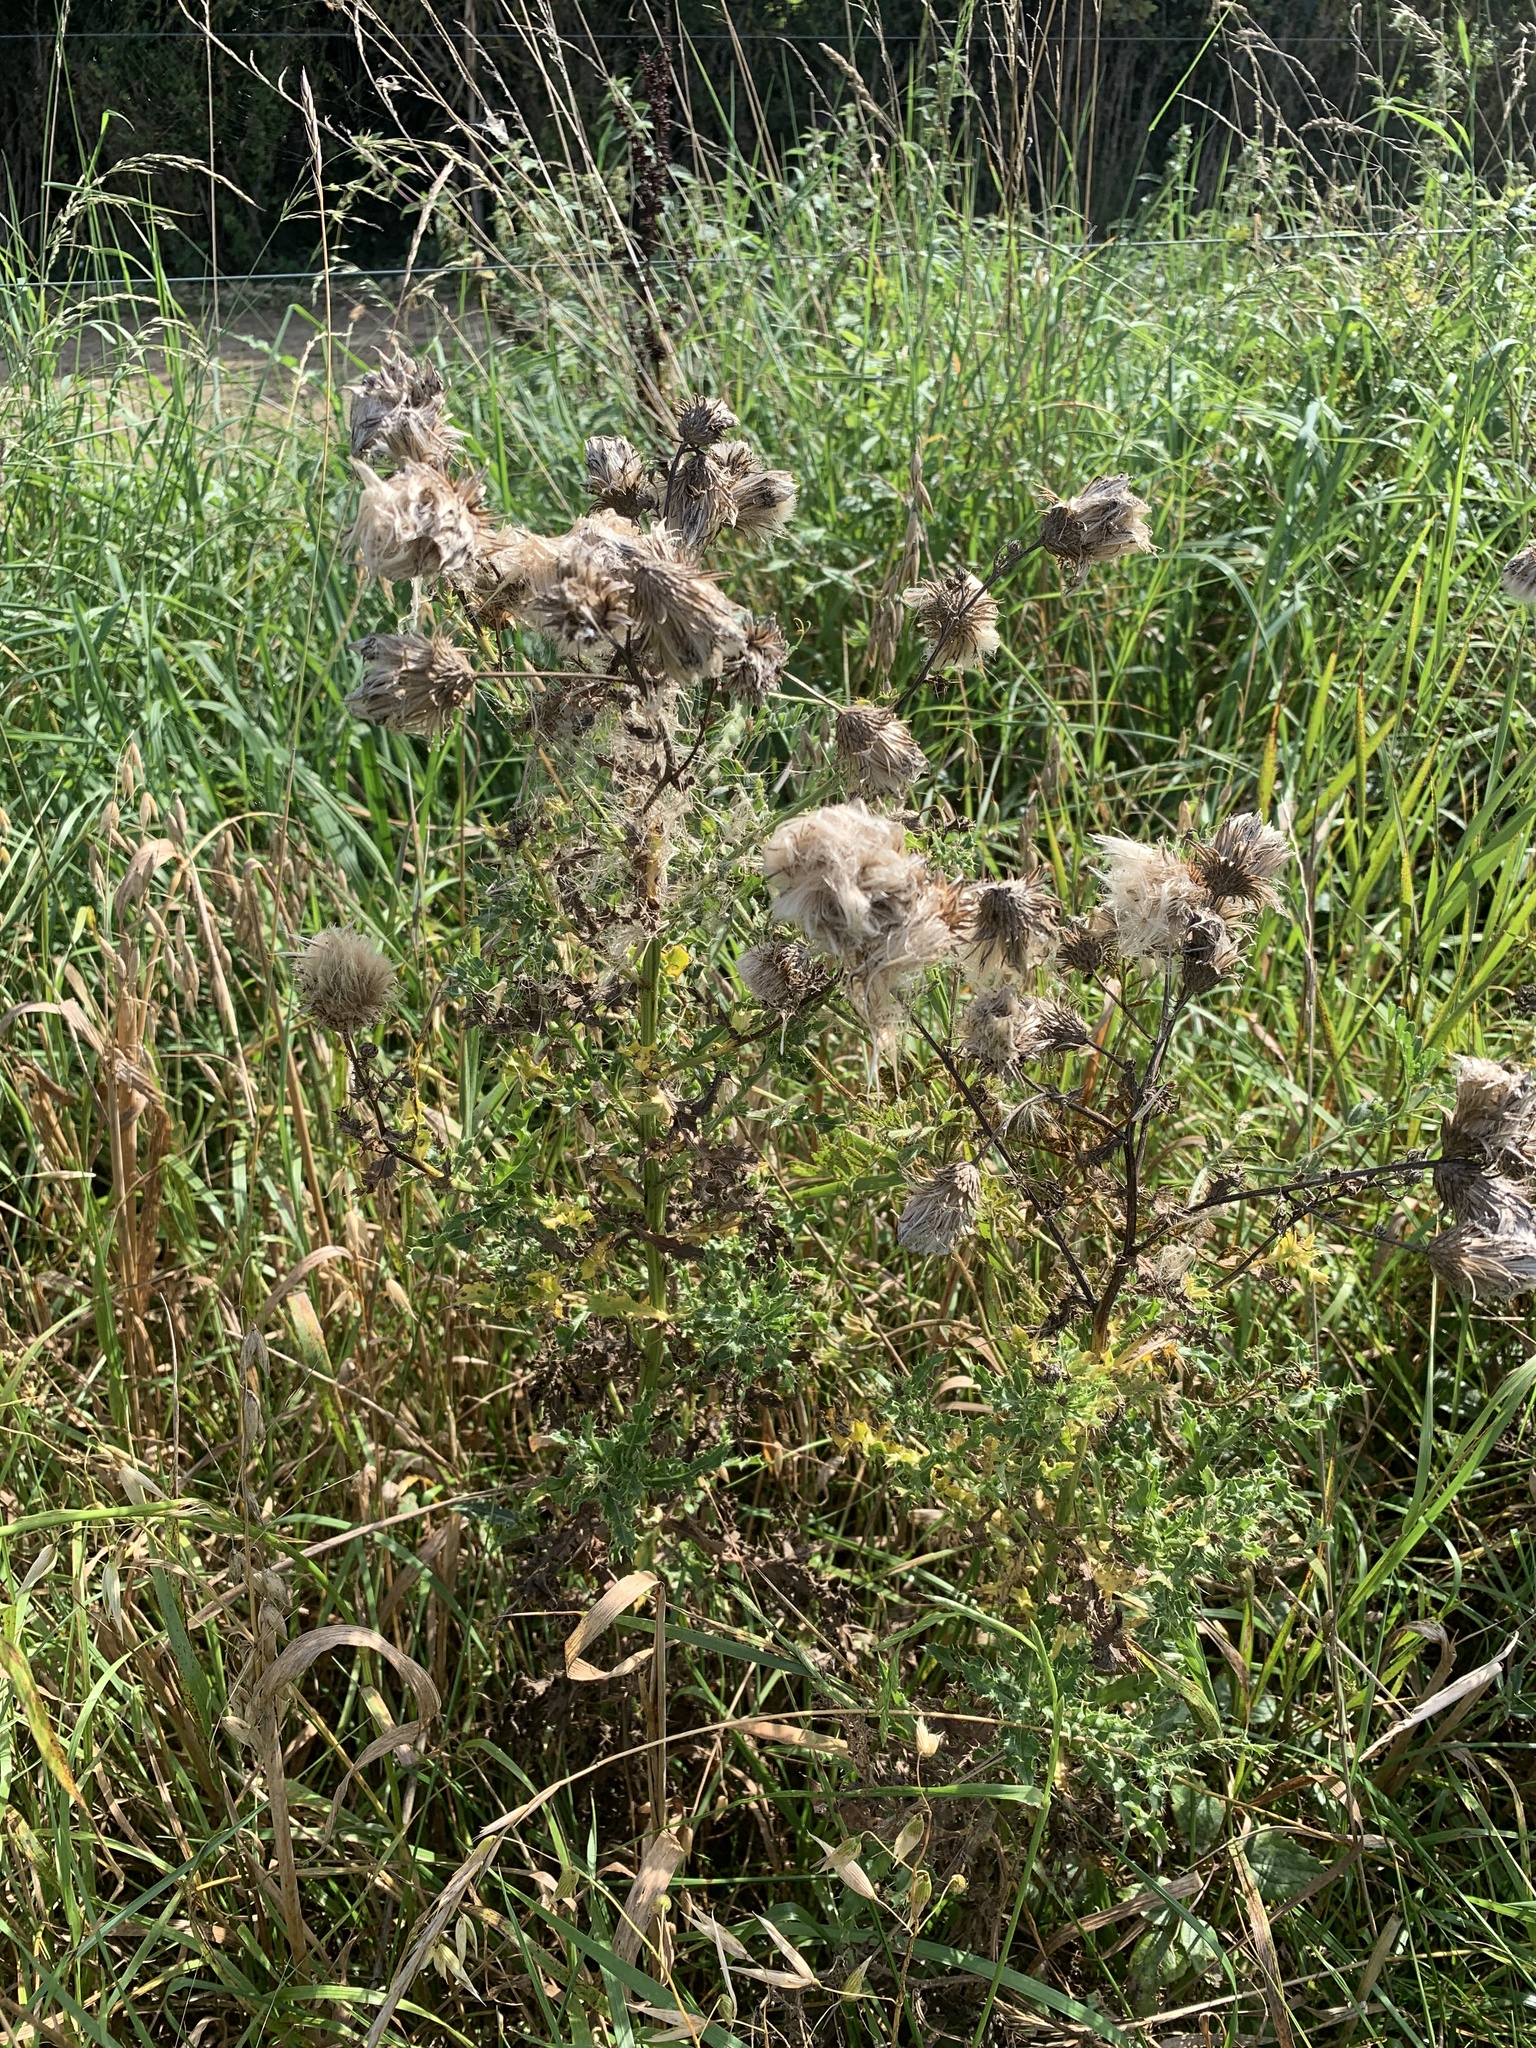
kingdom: Plantae
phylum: Tracheophyta
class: Magnoliopsida
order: Asterales
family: Asteraceae
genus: Cirsium
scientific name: Cirsium arvense
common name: Creeping thistle
